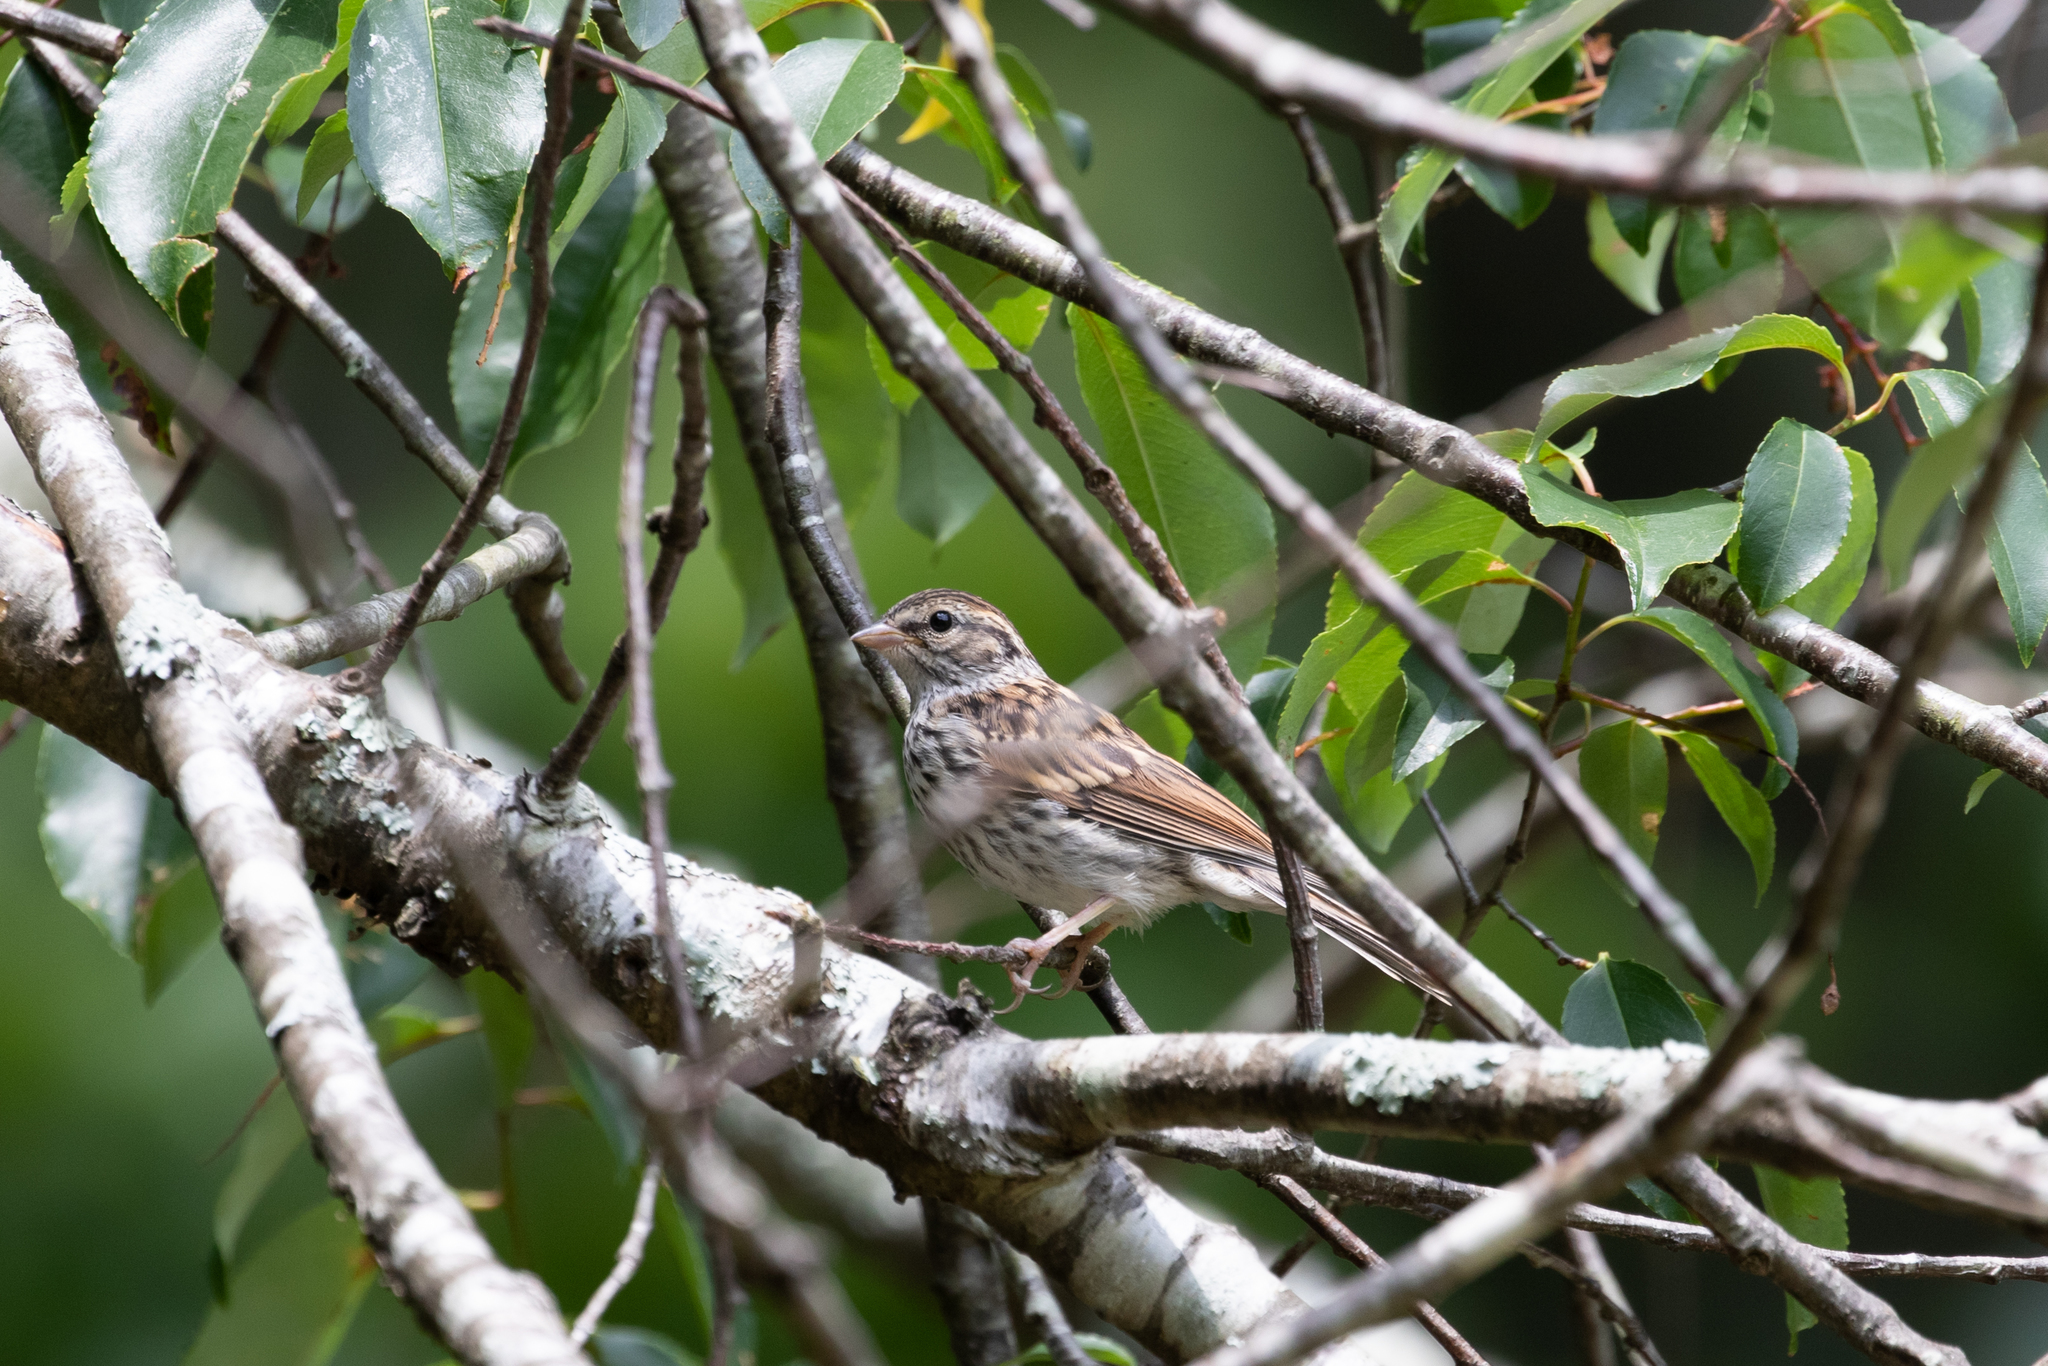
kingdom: Animalia
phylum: Chordata
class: Aves
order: Passeriformes
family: Passerellidae
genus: Spizella
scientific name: Spizella passerina
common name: Chipping sparrow
